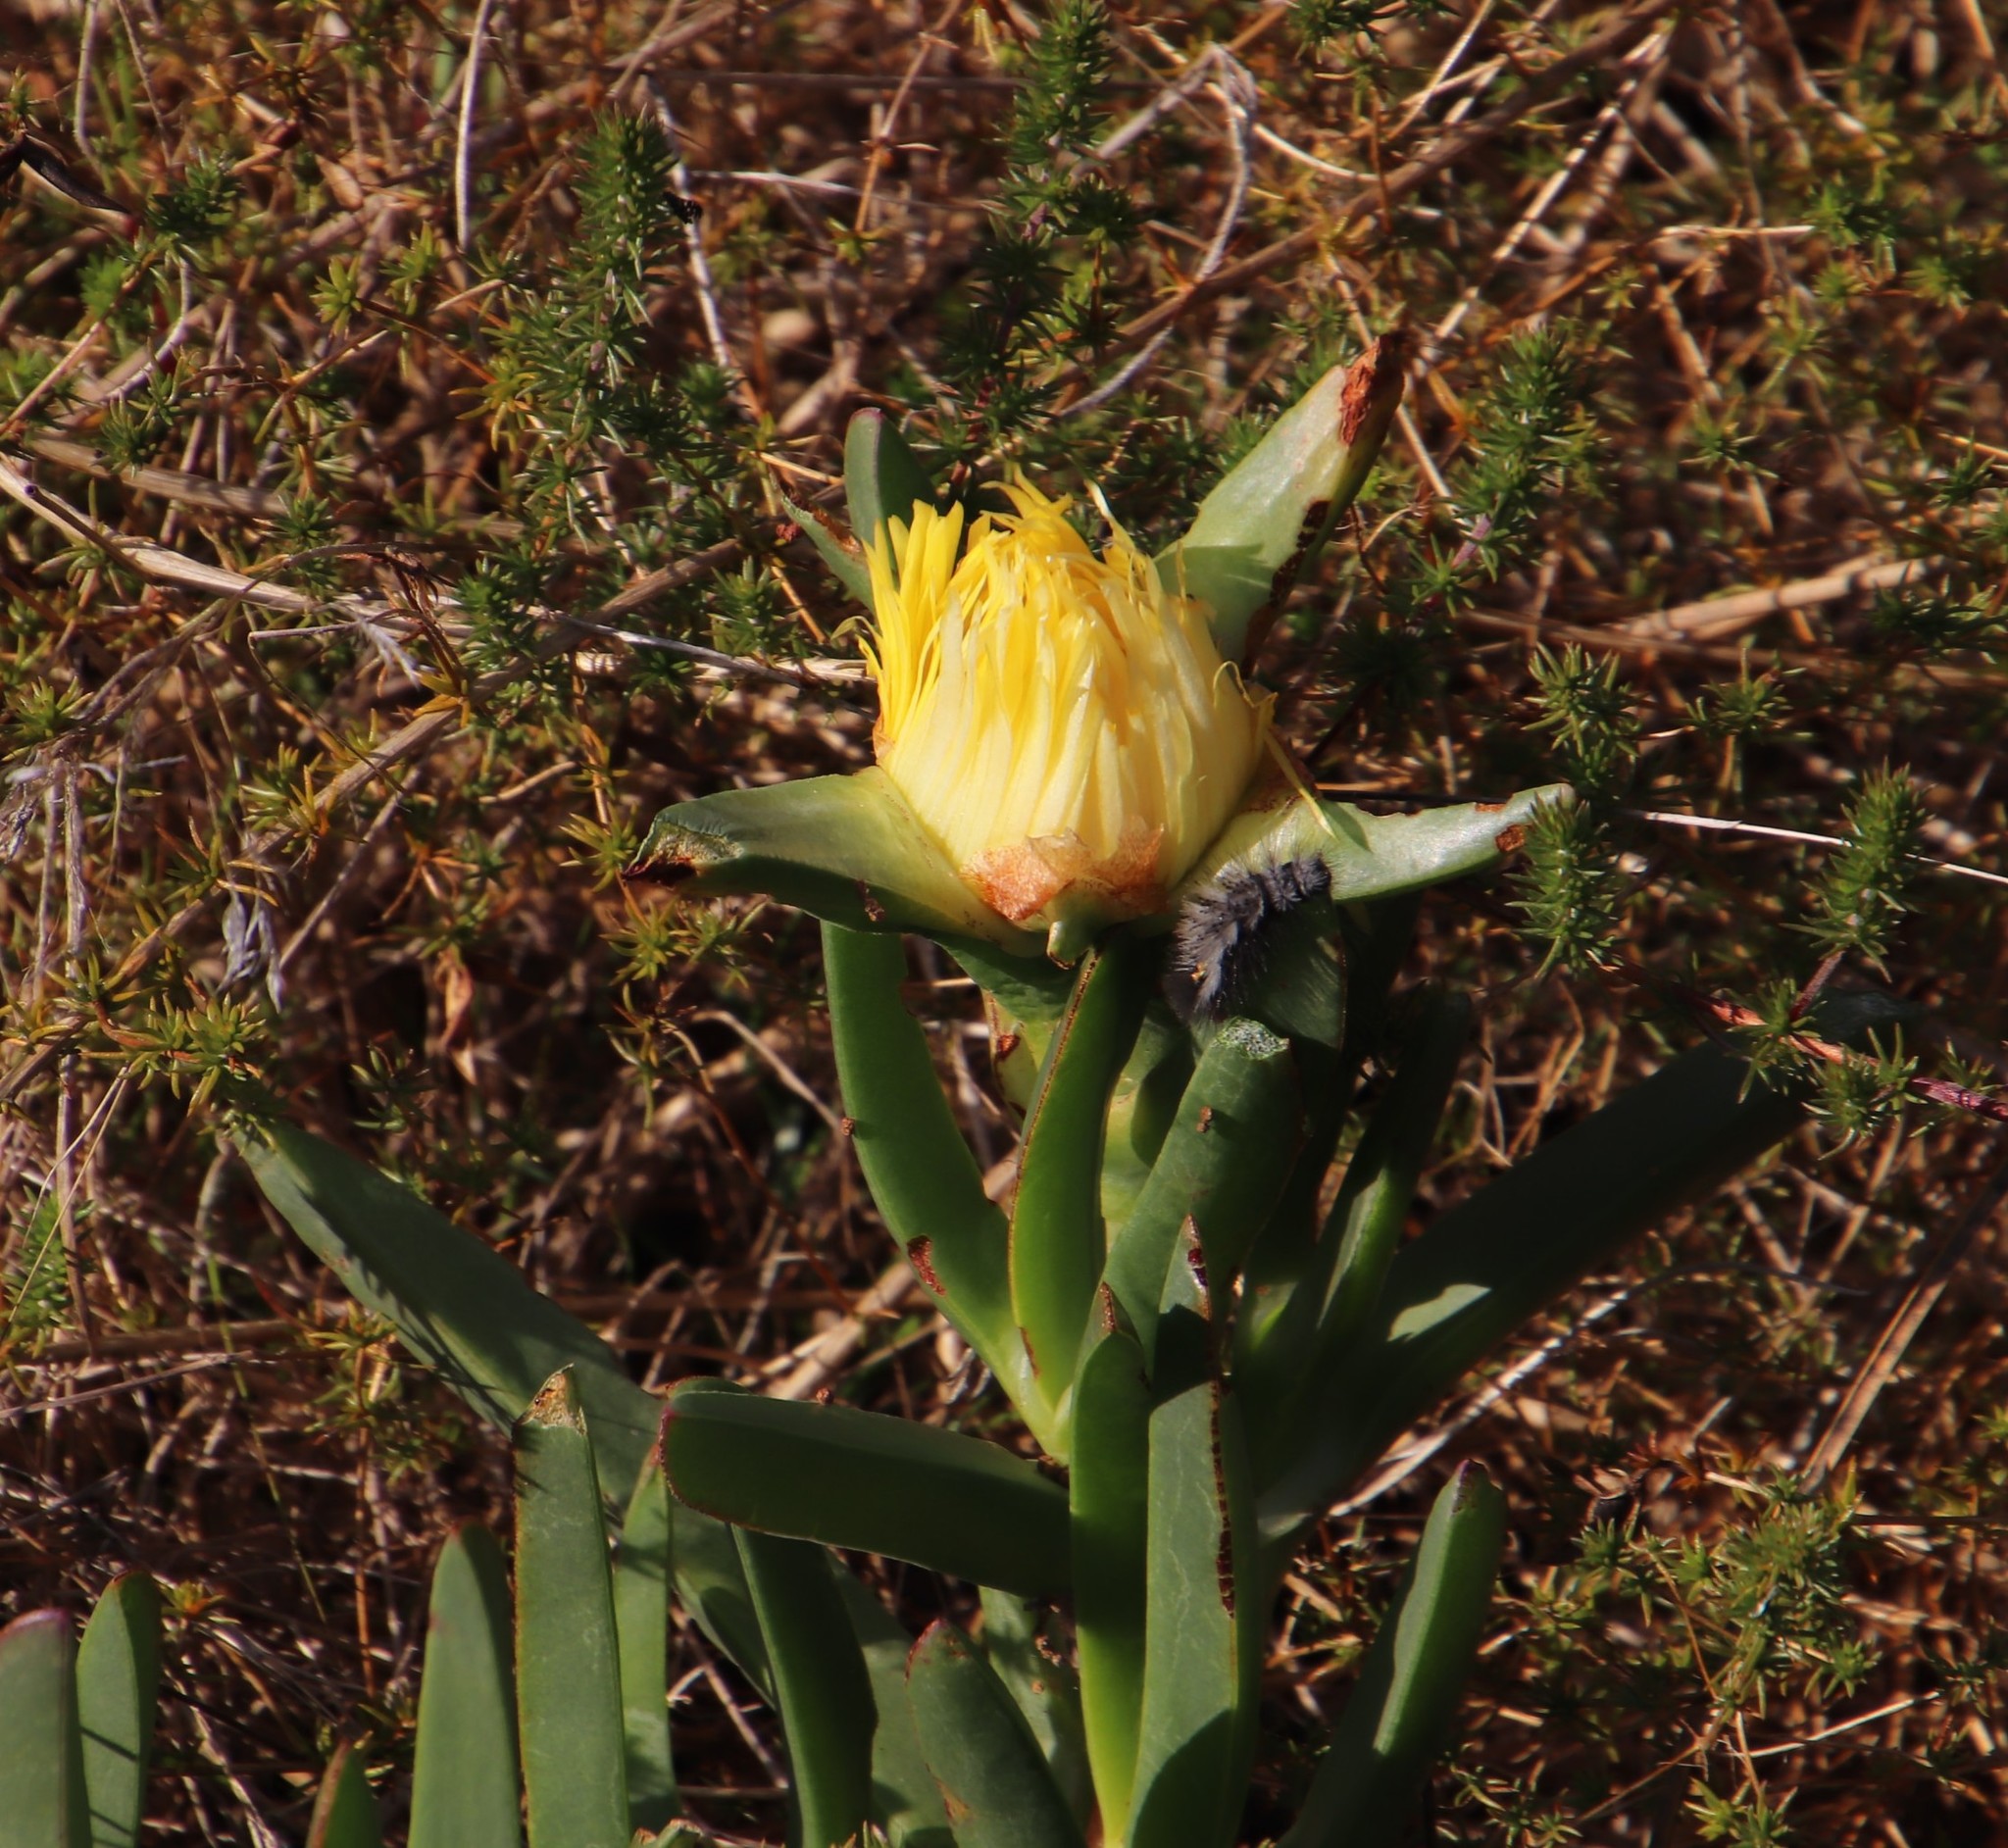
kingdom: Plantae
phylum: Tracheophyta
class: Magnoliopsida
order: Caryophyllales
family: Aizoaceae
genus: Carpobrotus
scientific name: Carpobrotus edulis
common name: Hottentot-fig
